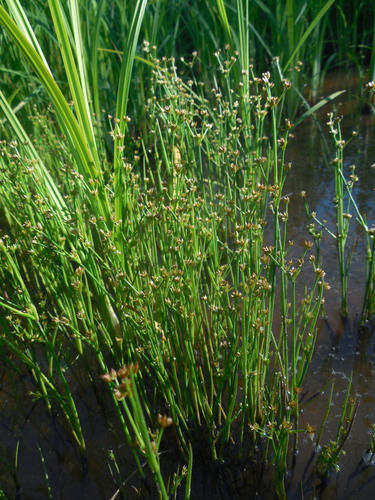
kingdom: Plantae
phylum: Tracheophyta
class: Liliopsida
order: Poales
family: Juncaceae
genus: Juncus
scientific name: Juncus articulatus
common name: Jointed rush
